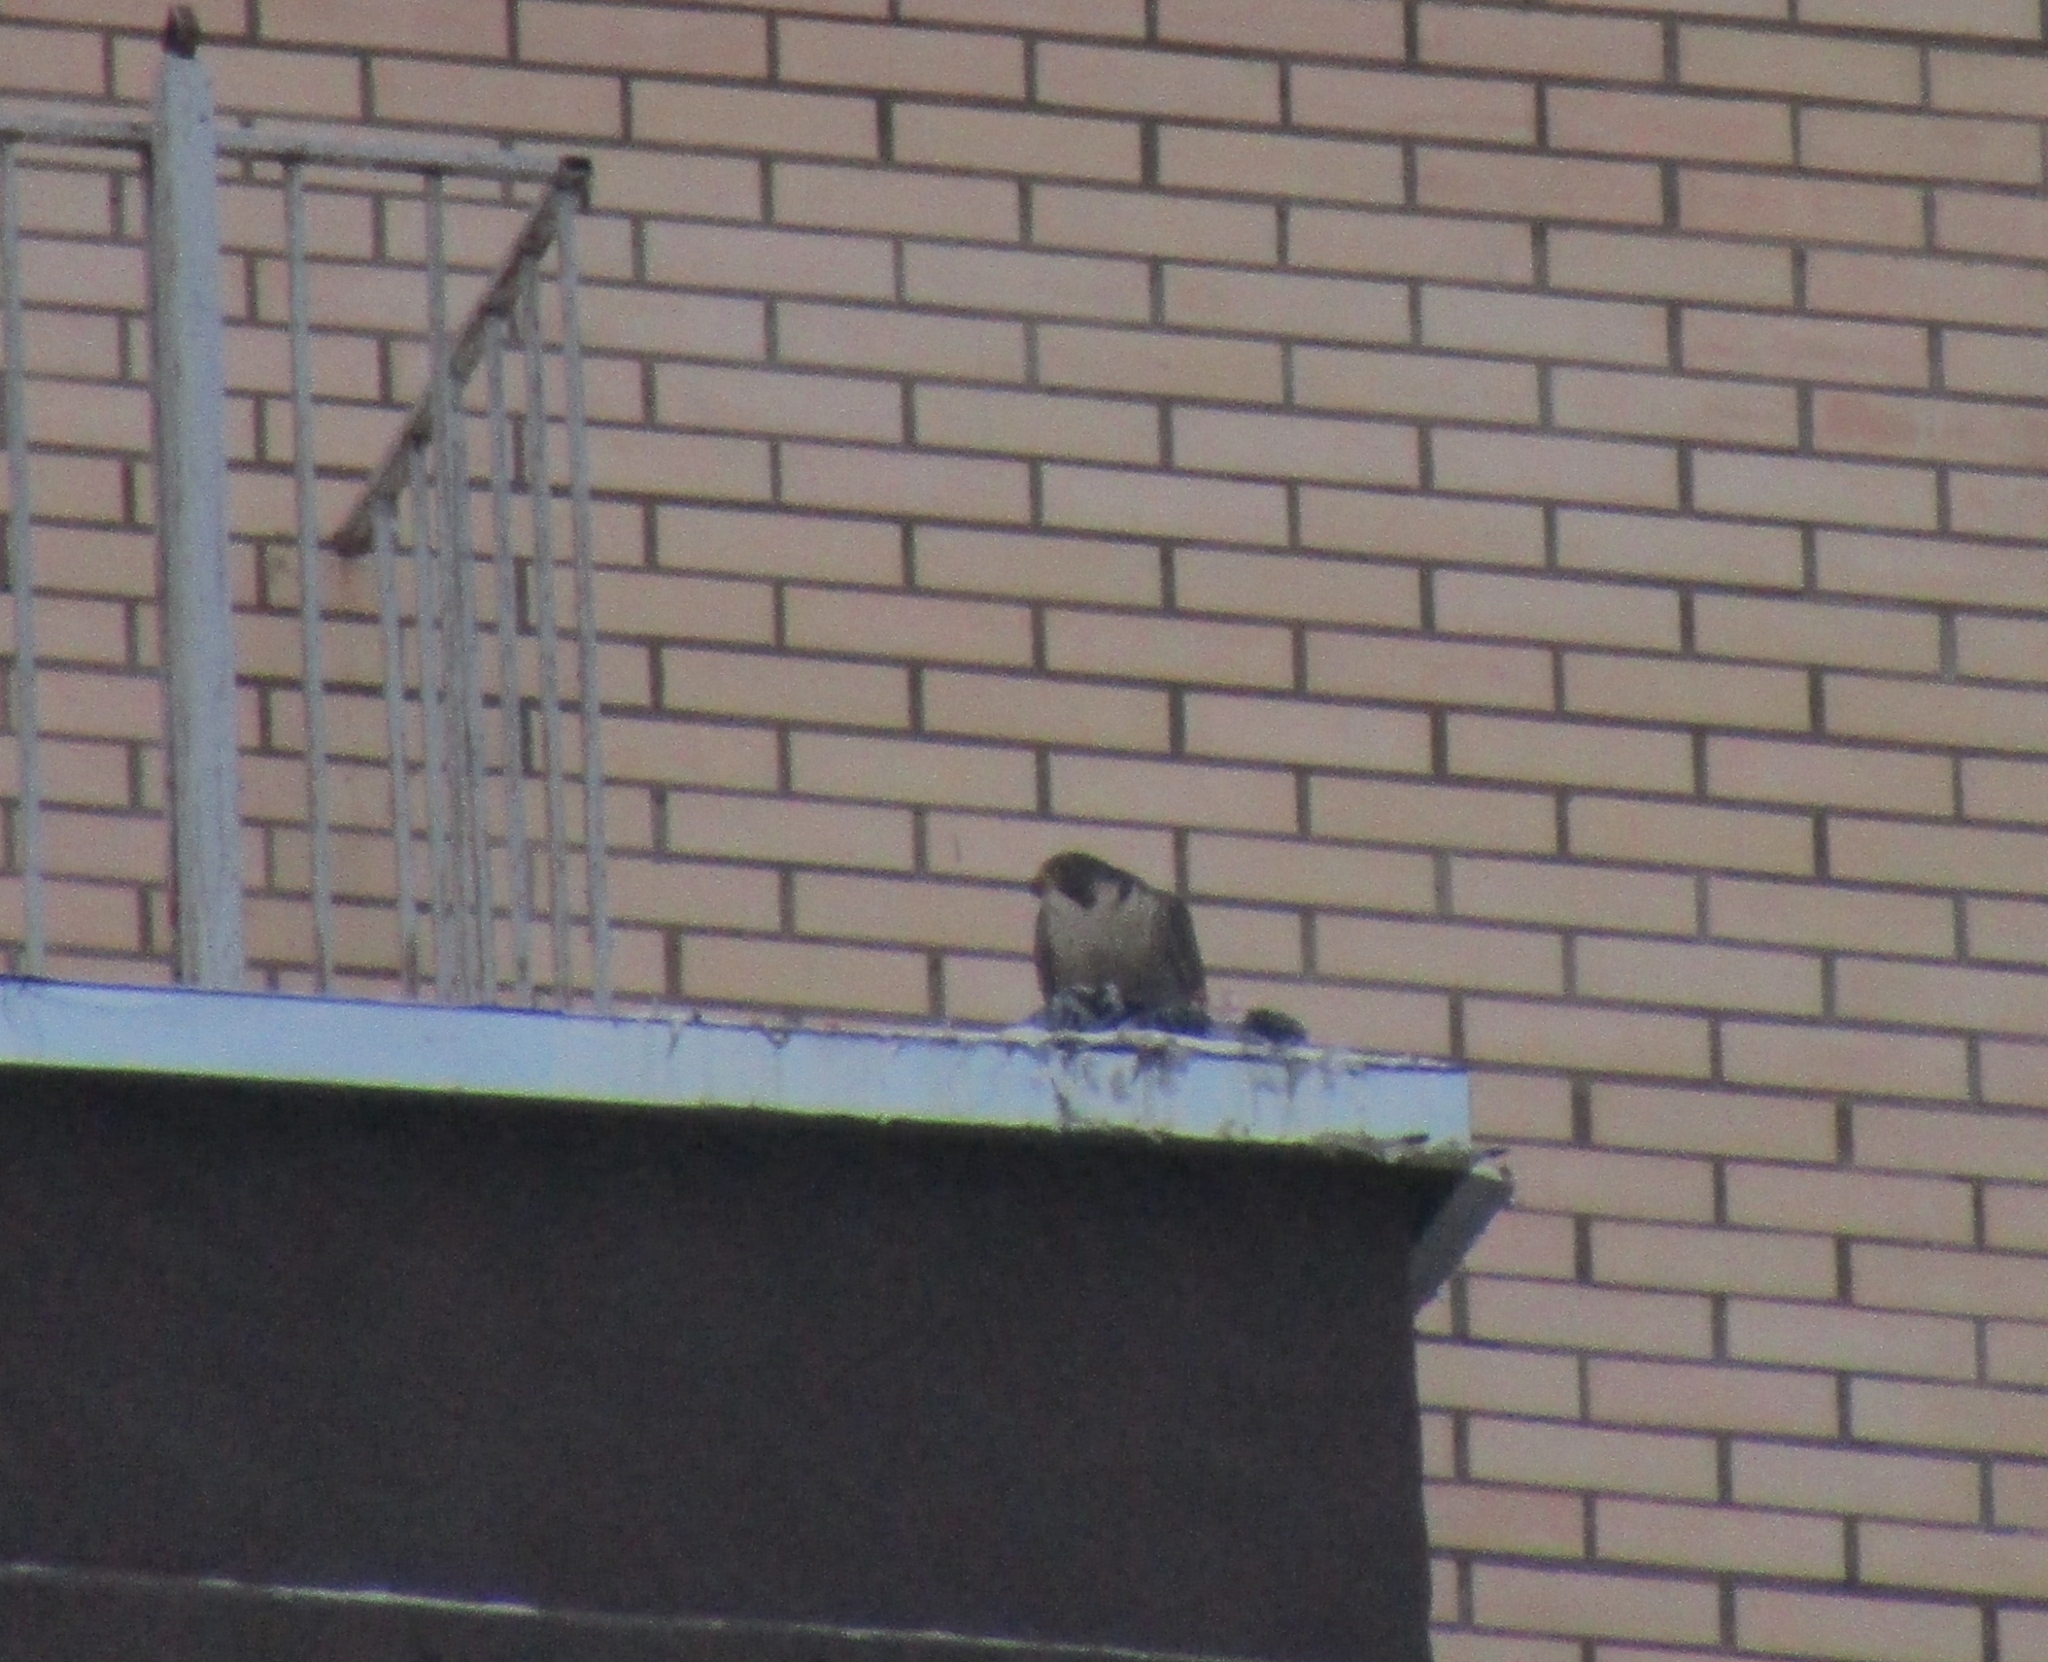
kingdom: Animalia
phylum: Chordata
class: Aves
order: Falconiformes
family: Falconidae
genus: Falco
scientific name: Falco peregrinus
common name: Peregrine falcon
